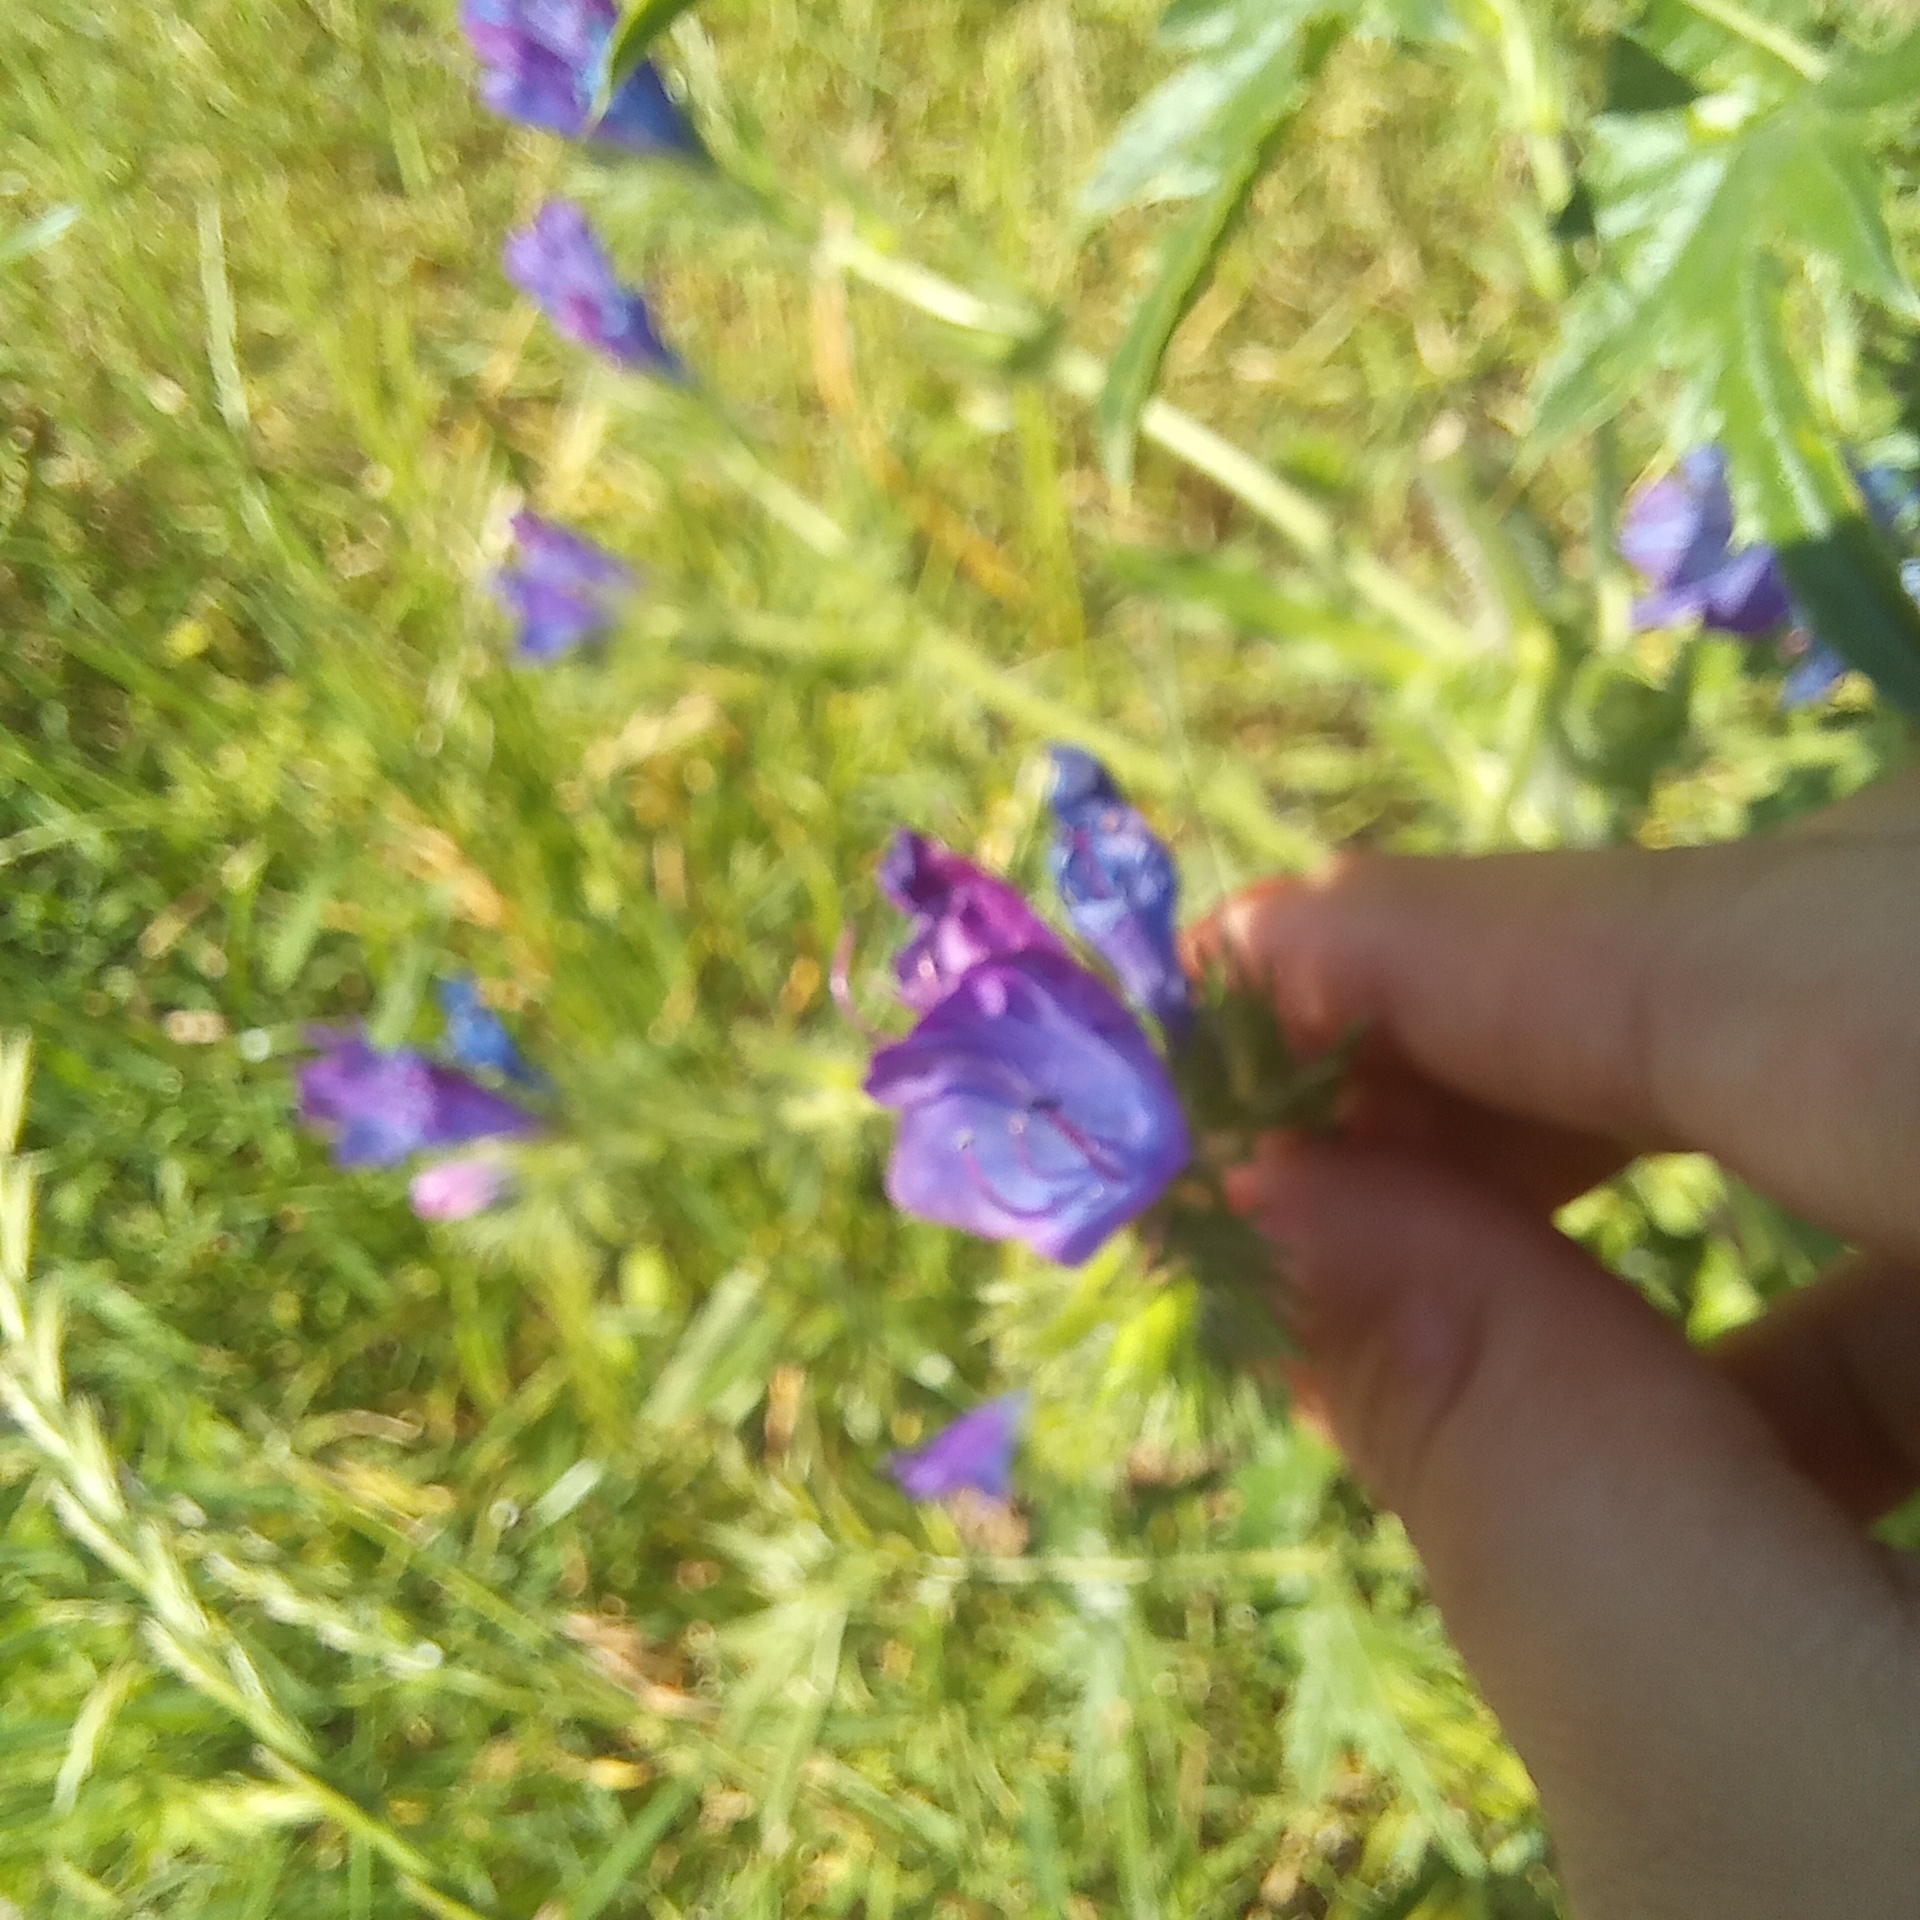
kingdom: Plantae
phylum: Tracheophyta
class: Magnoliopsida
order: Boraginales
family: Boraginaceae
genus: Echium
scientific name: Echium plantagineum
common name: Purple viper's-bugloss
